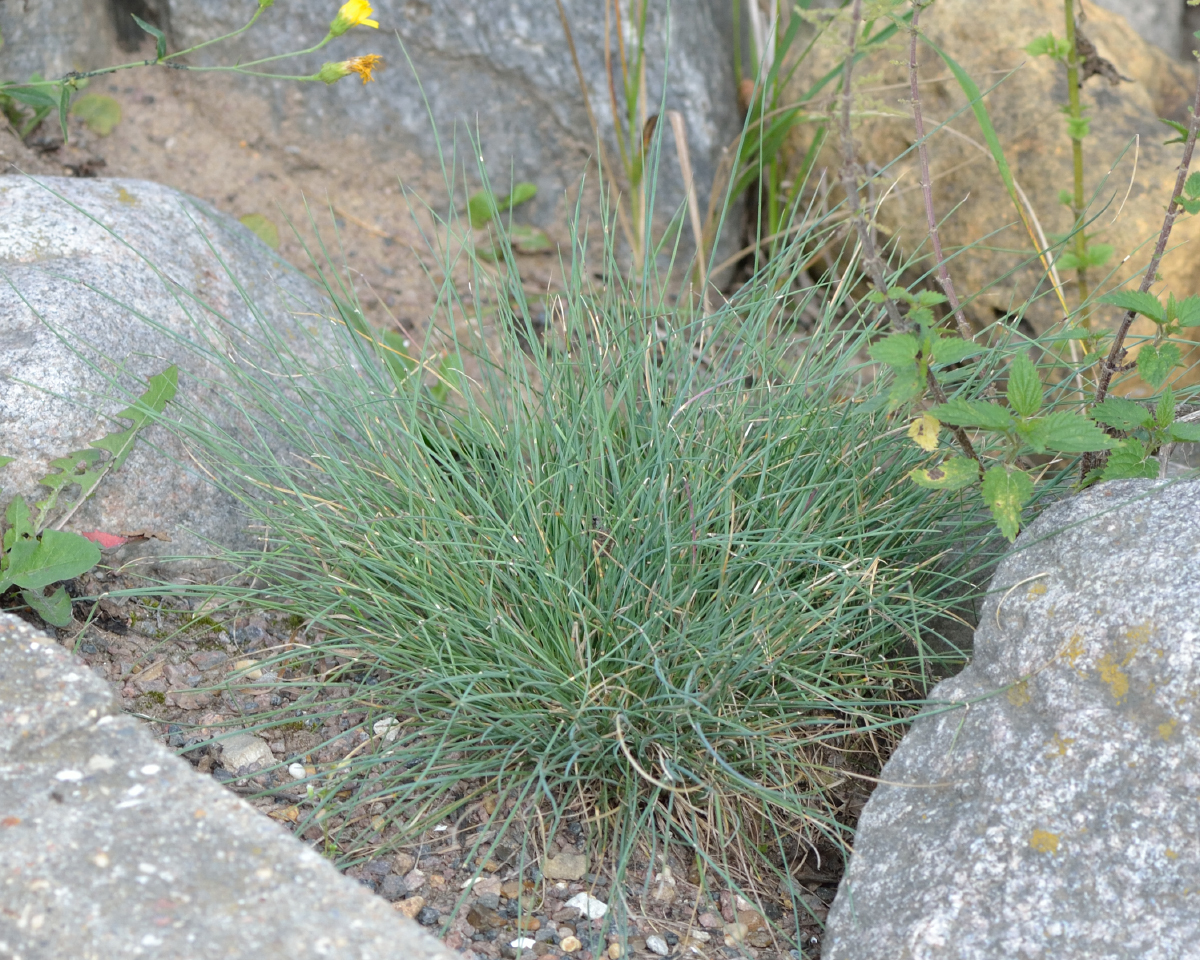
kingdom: Plantae
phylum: Tracheophyta
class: Liliopsida
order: Poales
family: Poaceae
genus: Festuca
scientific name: Festuca valesiaca
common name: Volga fescue
